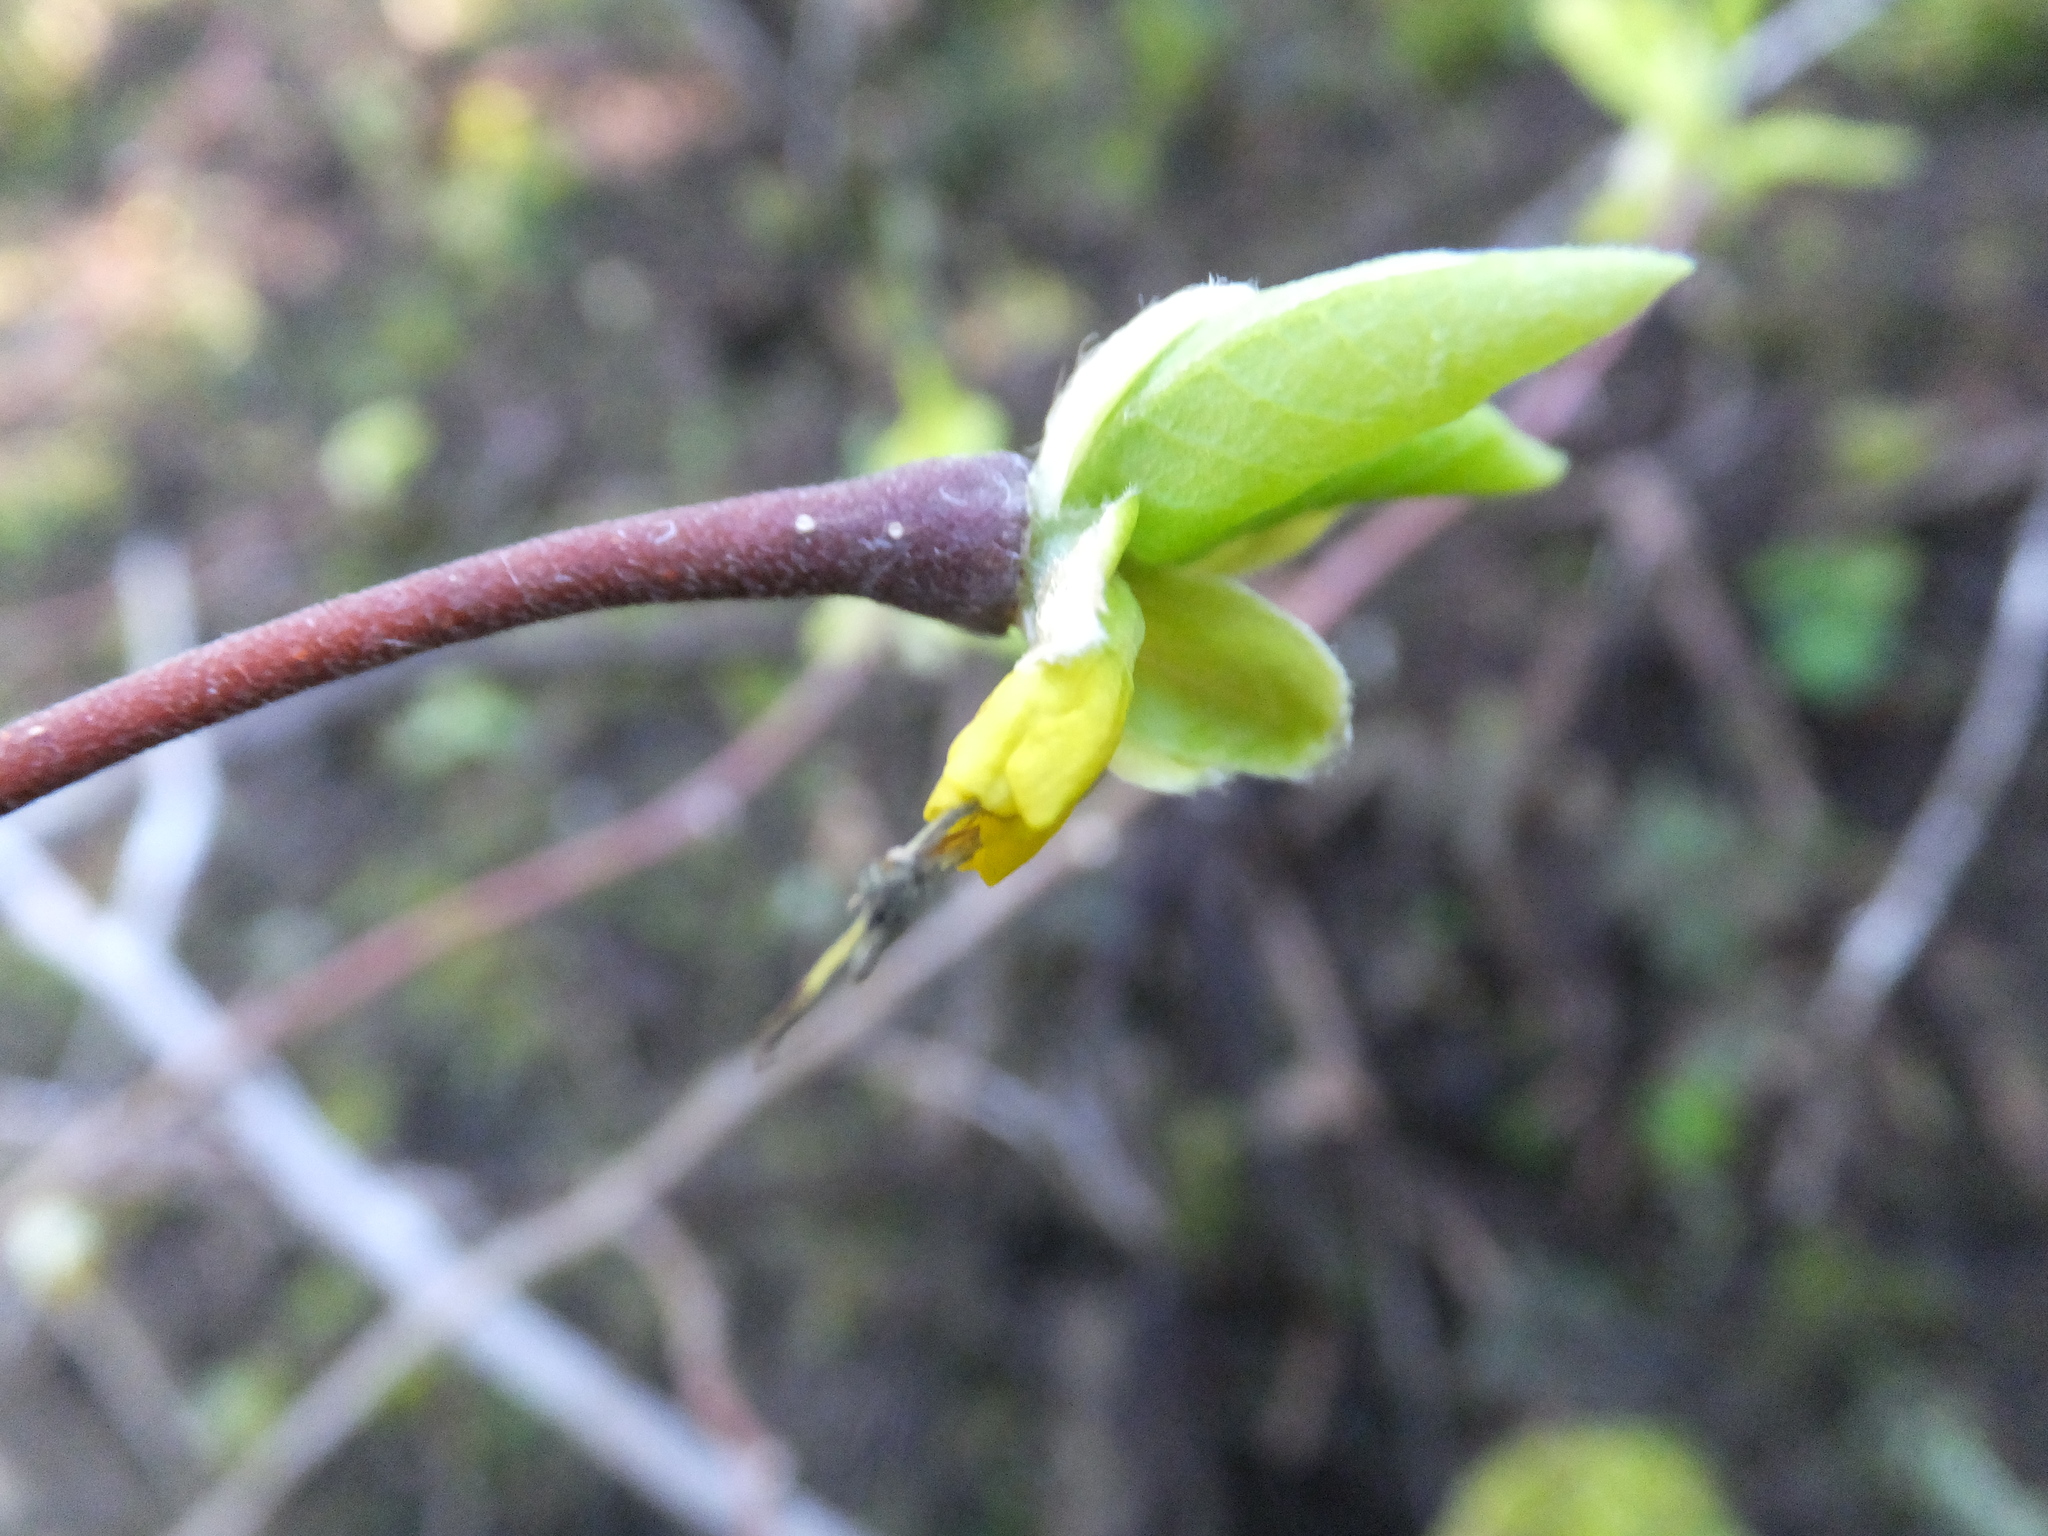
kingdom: Plantae
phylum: Tracheophyta
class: Magnoliopsida
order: Malvales
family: Thymelaeaceae
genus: Dirca
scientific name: Dirca occidentalis
